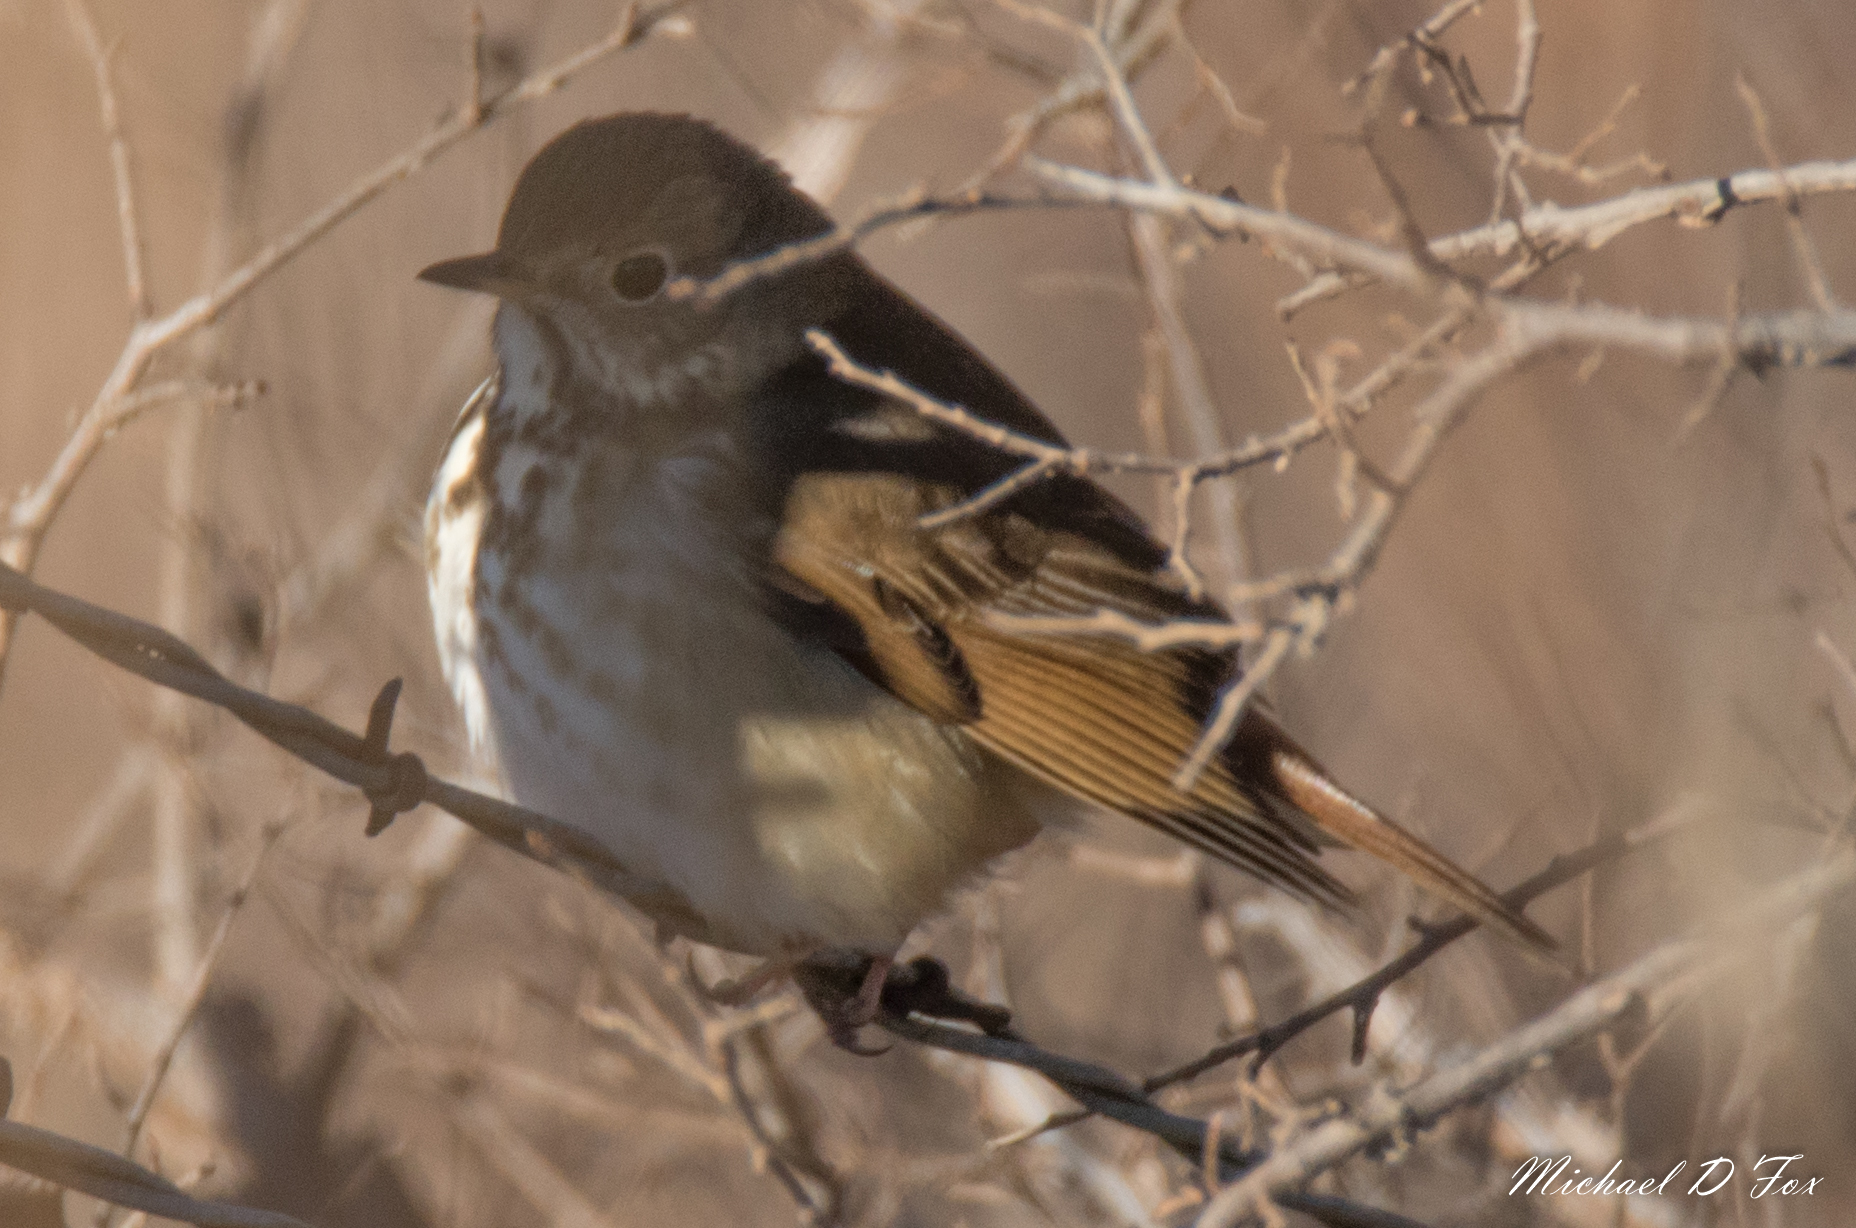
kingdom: Animalia
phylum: Chordata
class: Aves
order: Passeriformes
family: Turdidae
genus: Catharus
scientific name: Catharus guttatus
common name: Hermit thrush
